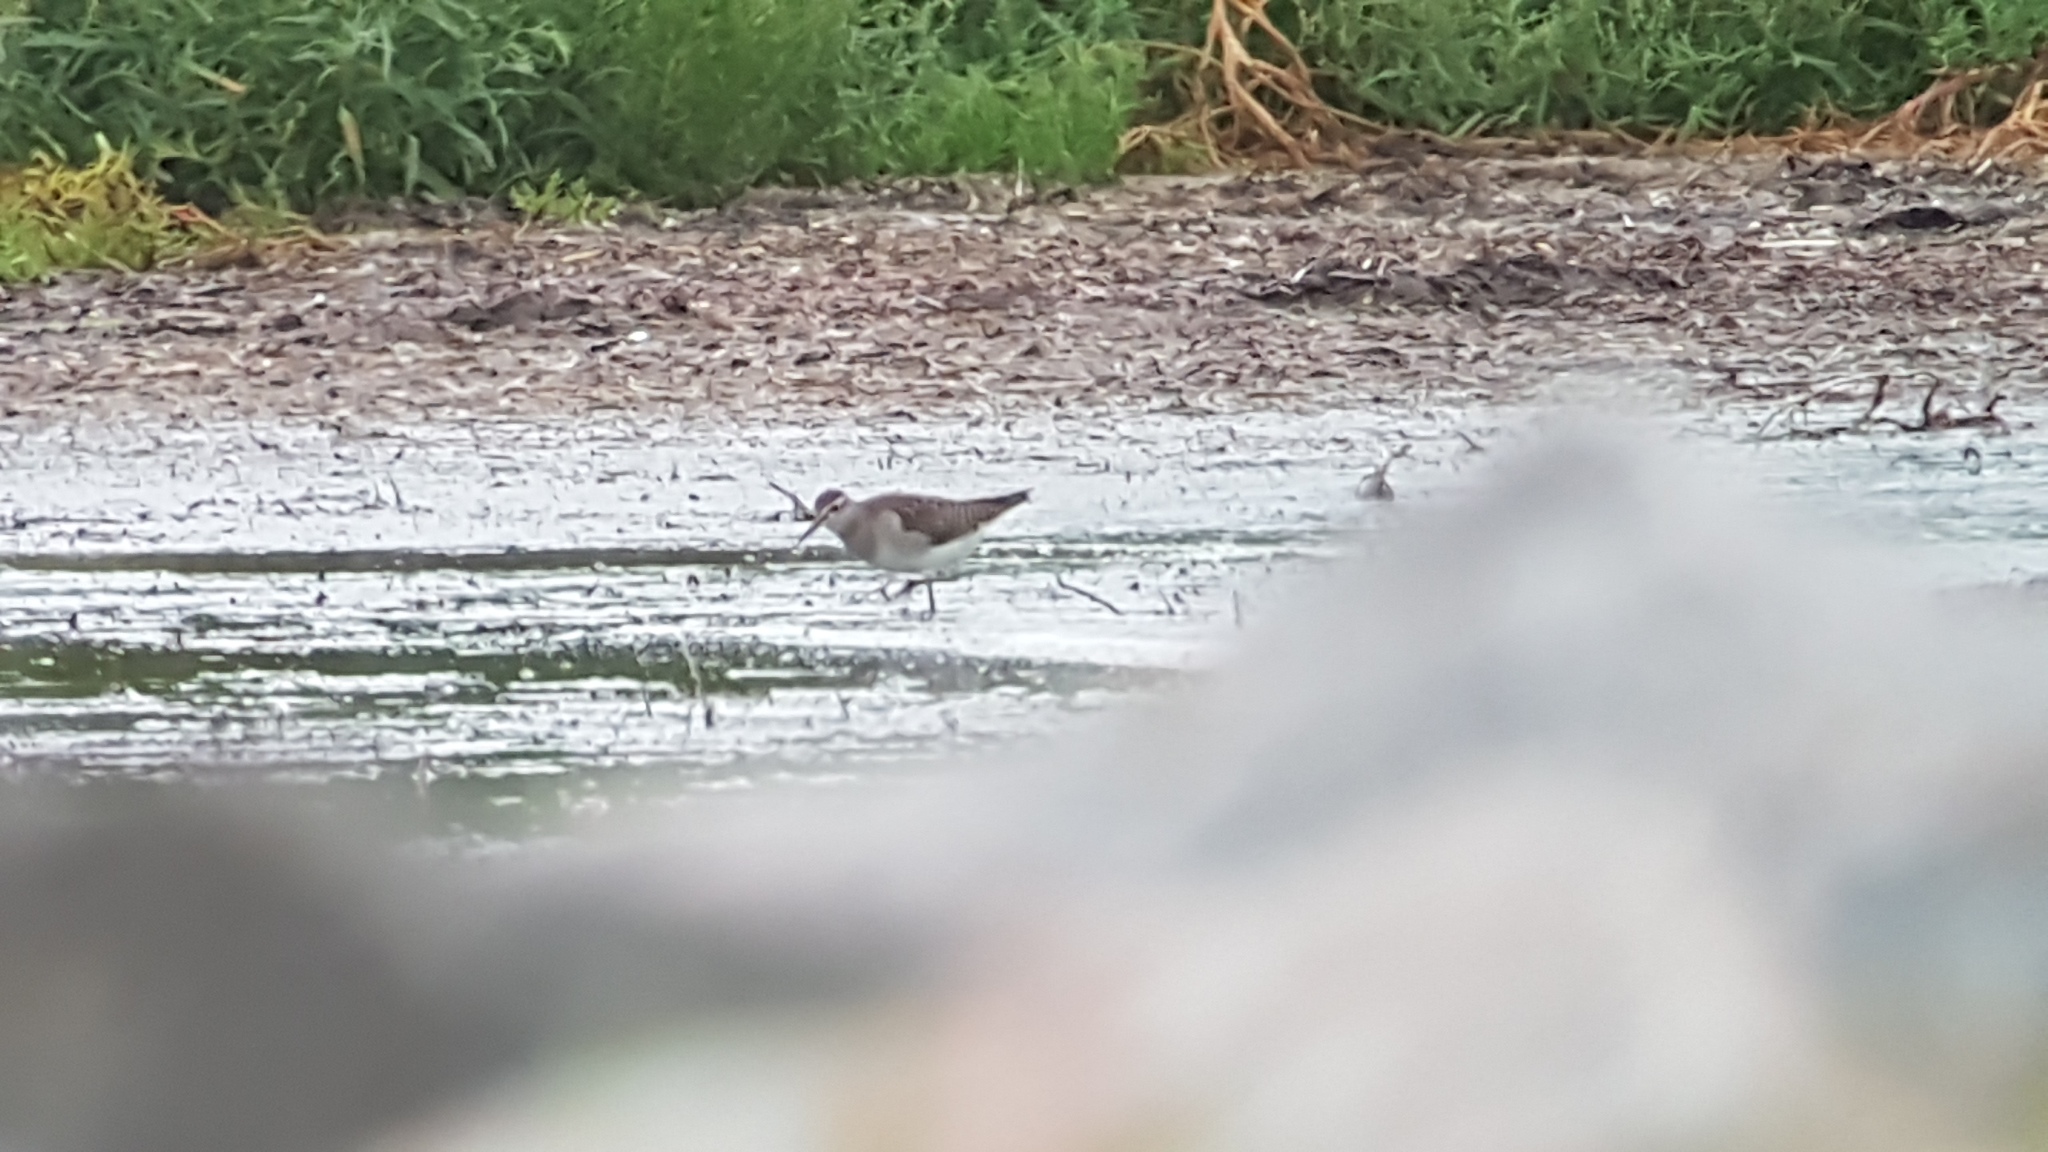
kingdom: Animalia
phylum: Chordata
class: Aves
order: Charadriiformes
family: Scolopacidae
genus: Tringa
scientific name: Tringa glareola
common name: Wood sandpiper
